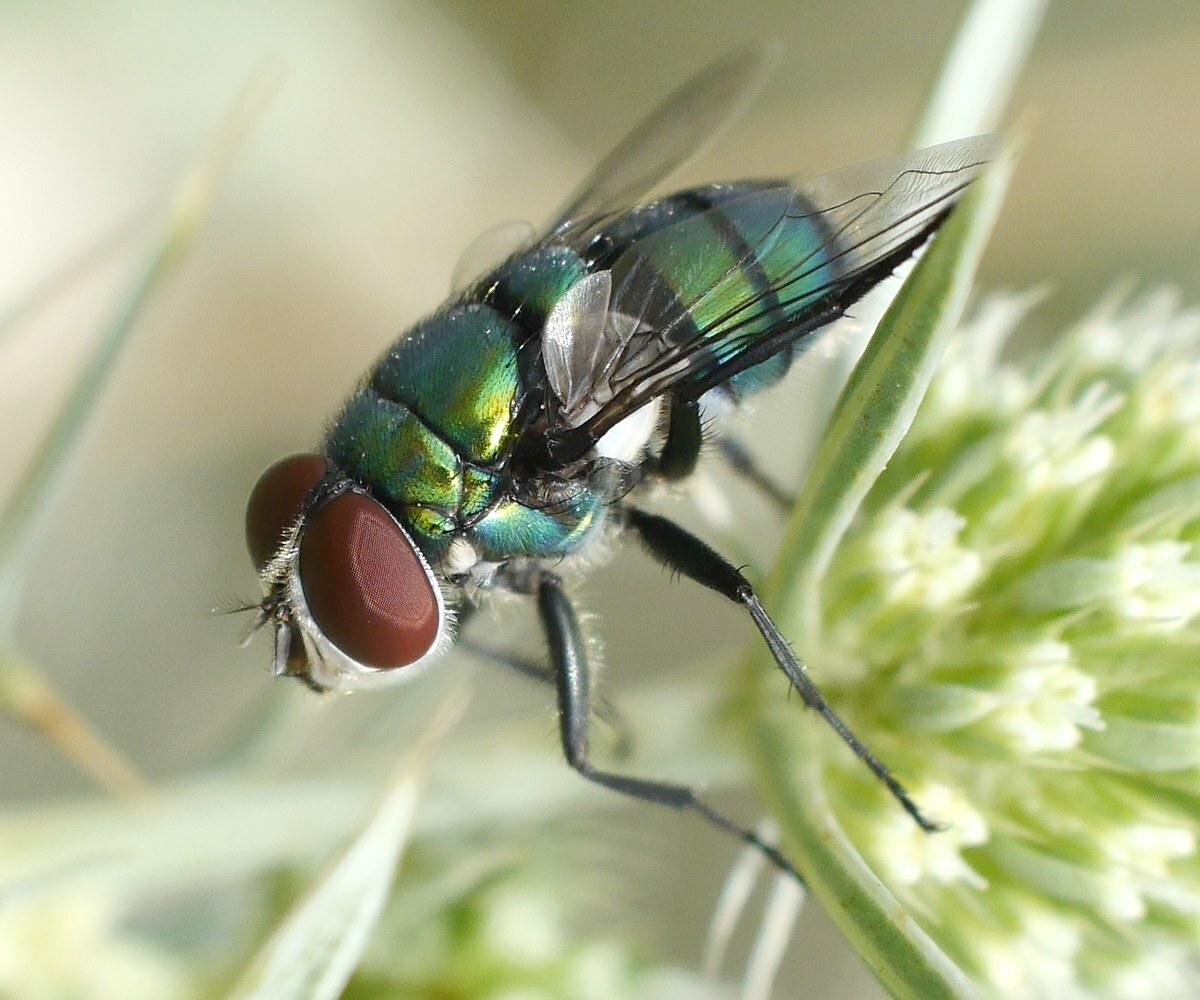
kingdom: Animalia
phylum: Arthropoda
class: Insecta
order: Diptera
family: Calliphoridae
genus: Chrysomya
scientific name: Chrysomya albiceps
